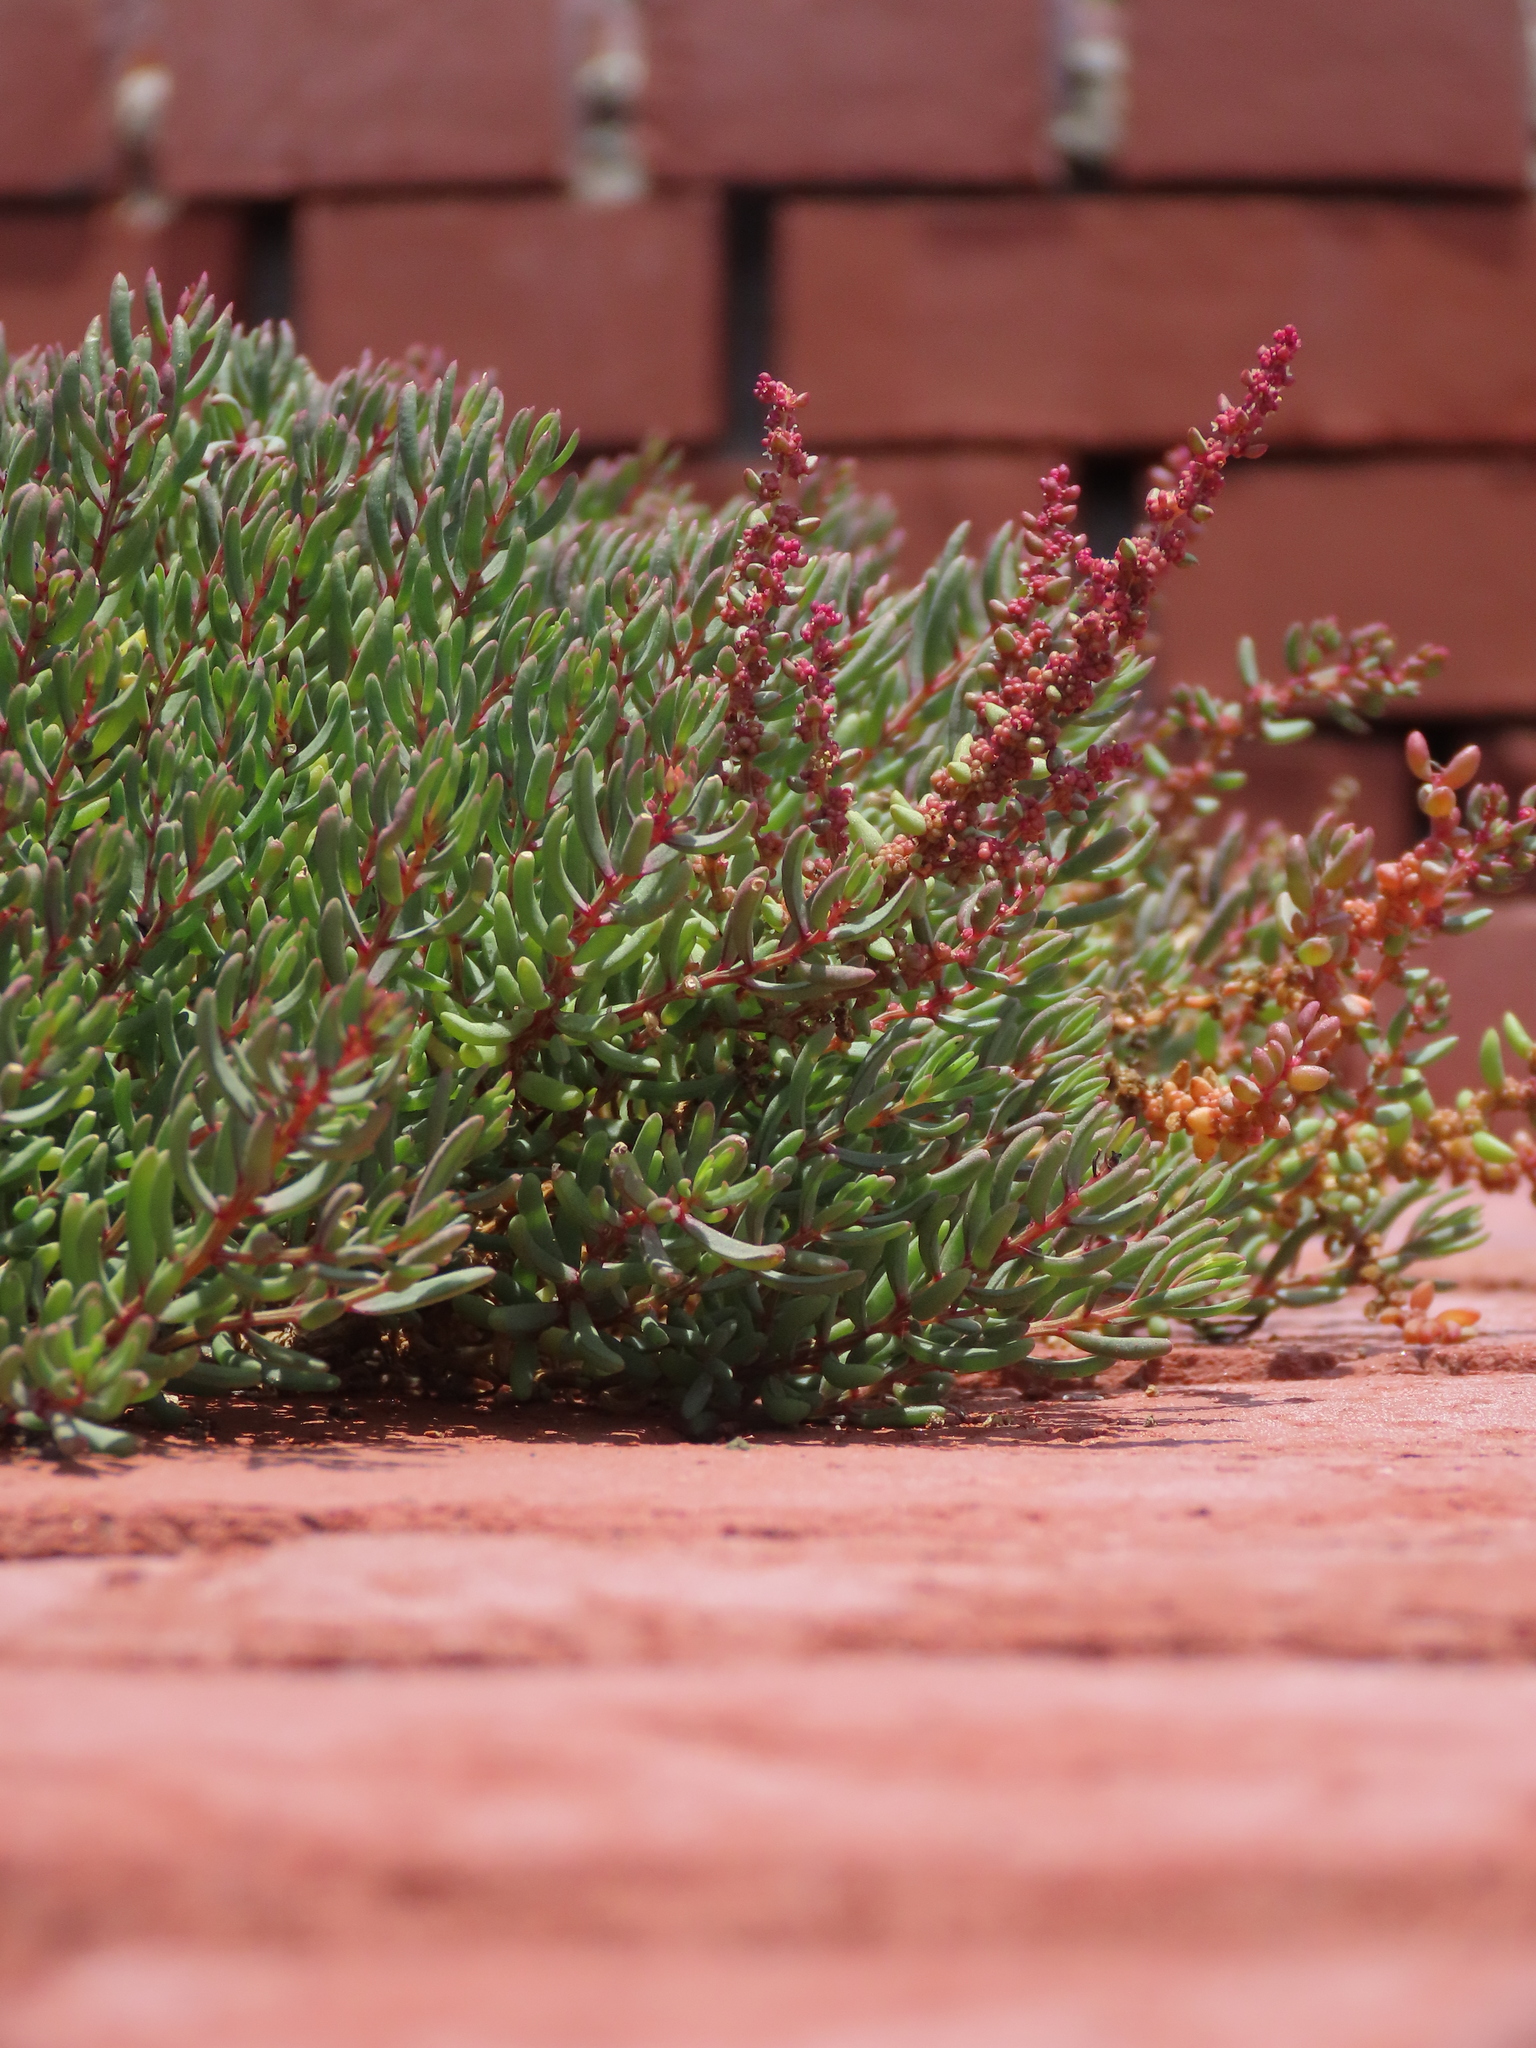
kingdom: Plantae
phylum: Tracheophyta
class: Magnoliopsida
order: Caryophyllales
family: Amaranthaceae
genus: Suaeda
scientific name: Suaeda maritima
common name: Annual sea-blite
